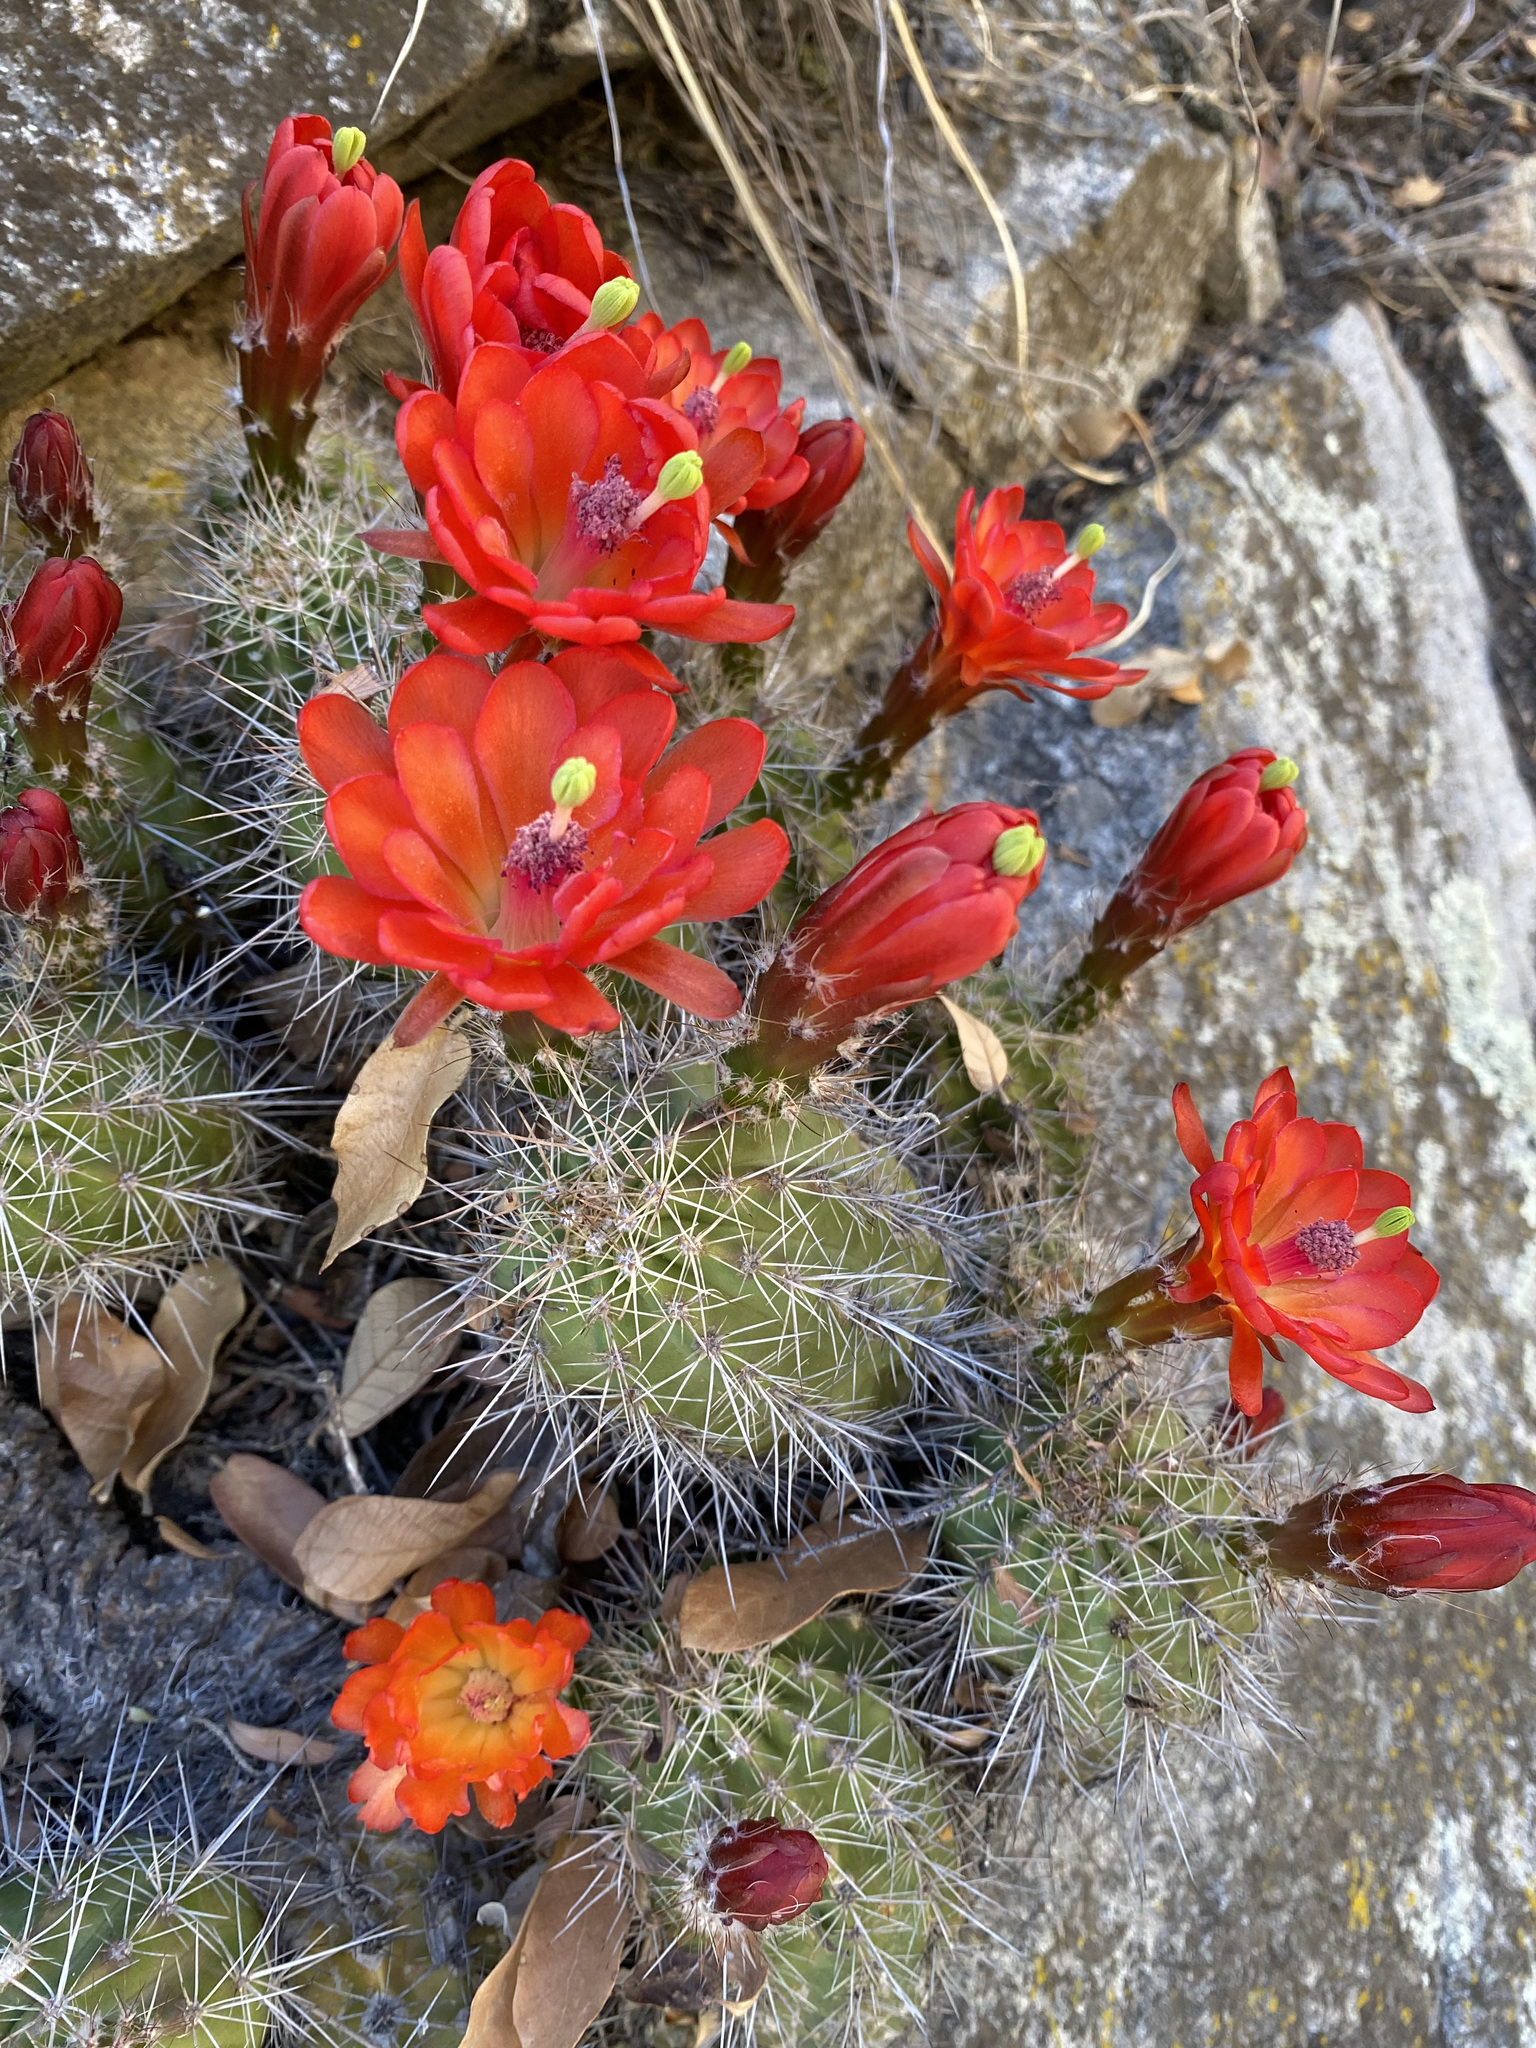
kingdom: Plantae
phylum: Tracheophyta
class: Magnoliopsida
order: Caryophyllales
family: Cactaceae
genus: Echinocereus
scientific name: Echinocereus coccineus
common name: Scarlet hedgehog cactus
